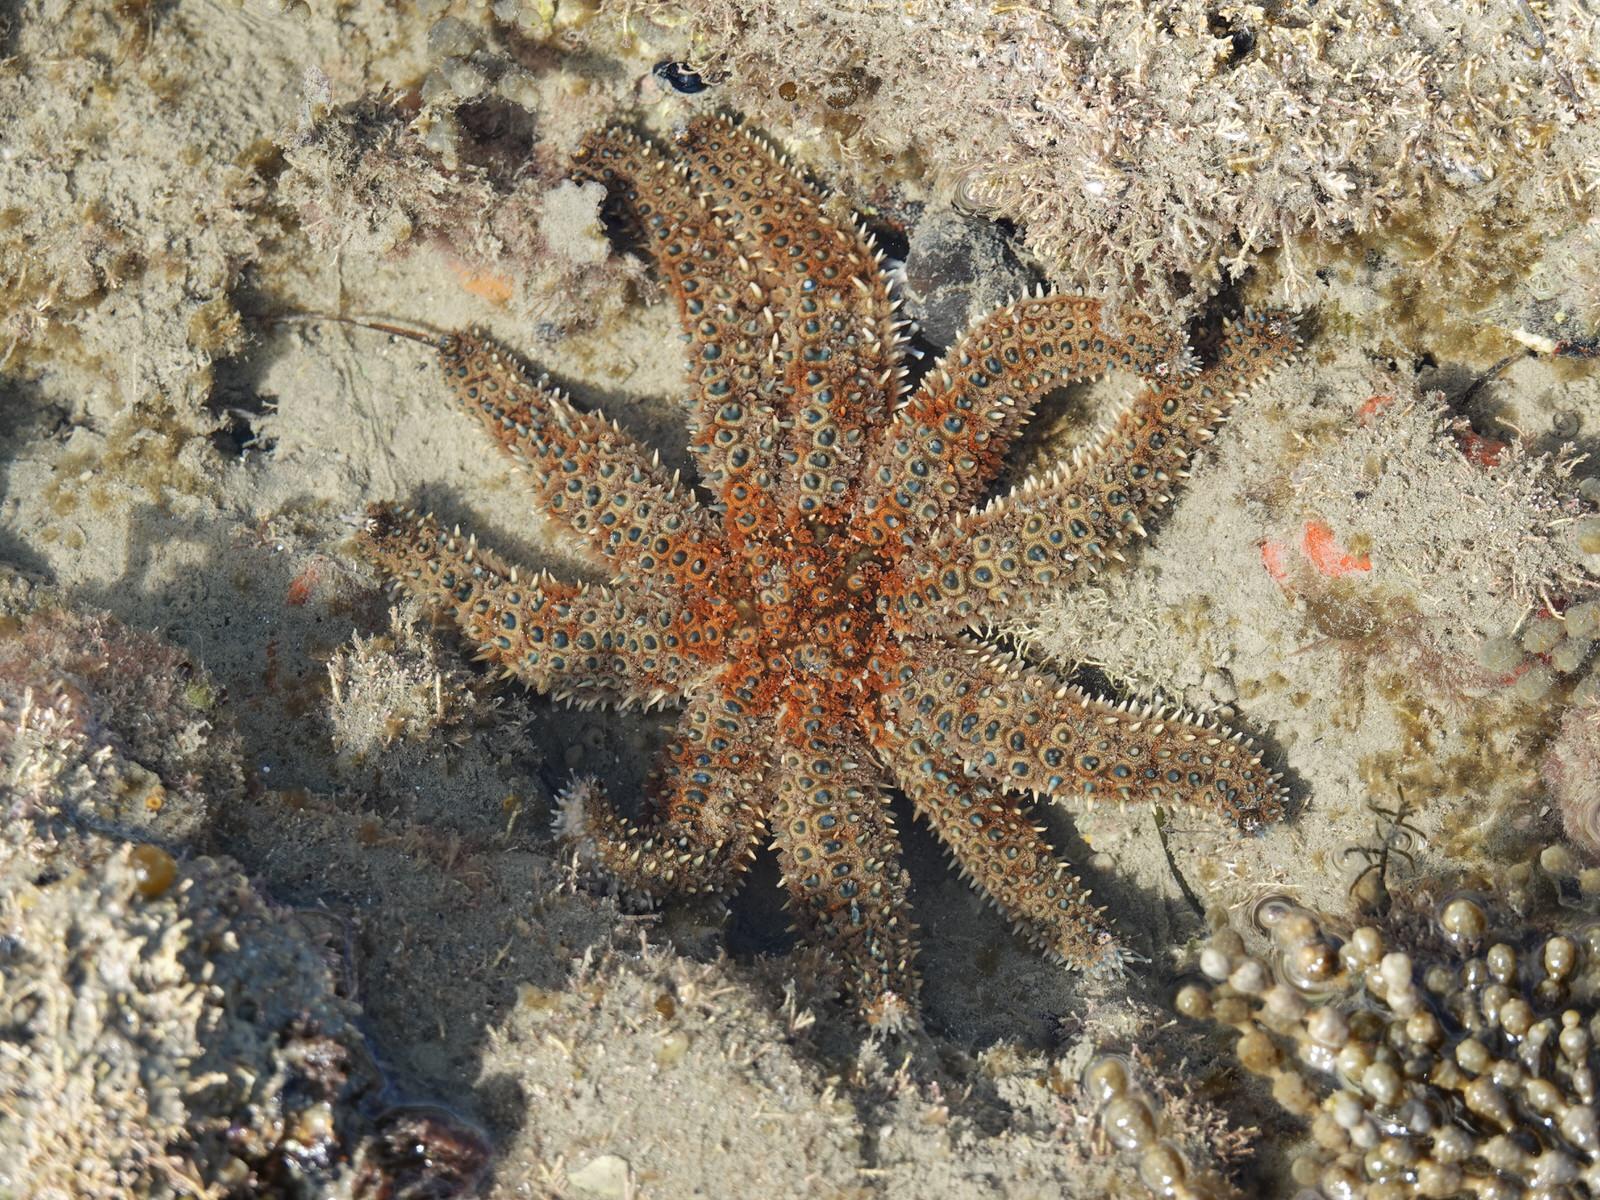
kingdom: Animalia
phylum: Echinodermata
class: Asteroidea
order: Forcipulatida
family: Asteriidae
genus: Coscinasterias
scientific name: Coscinasterias muricata
